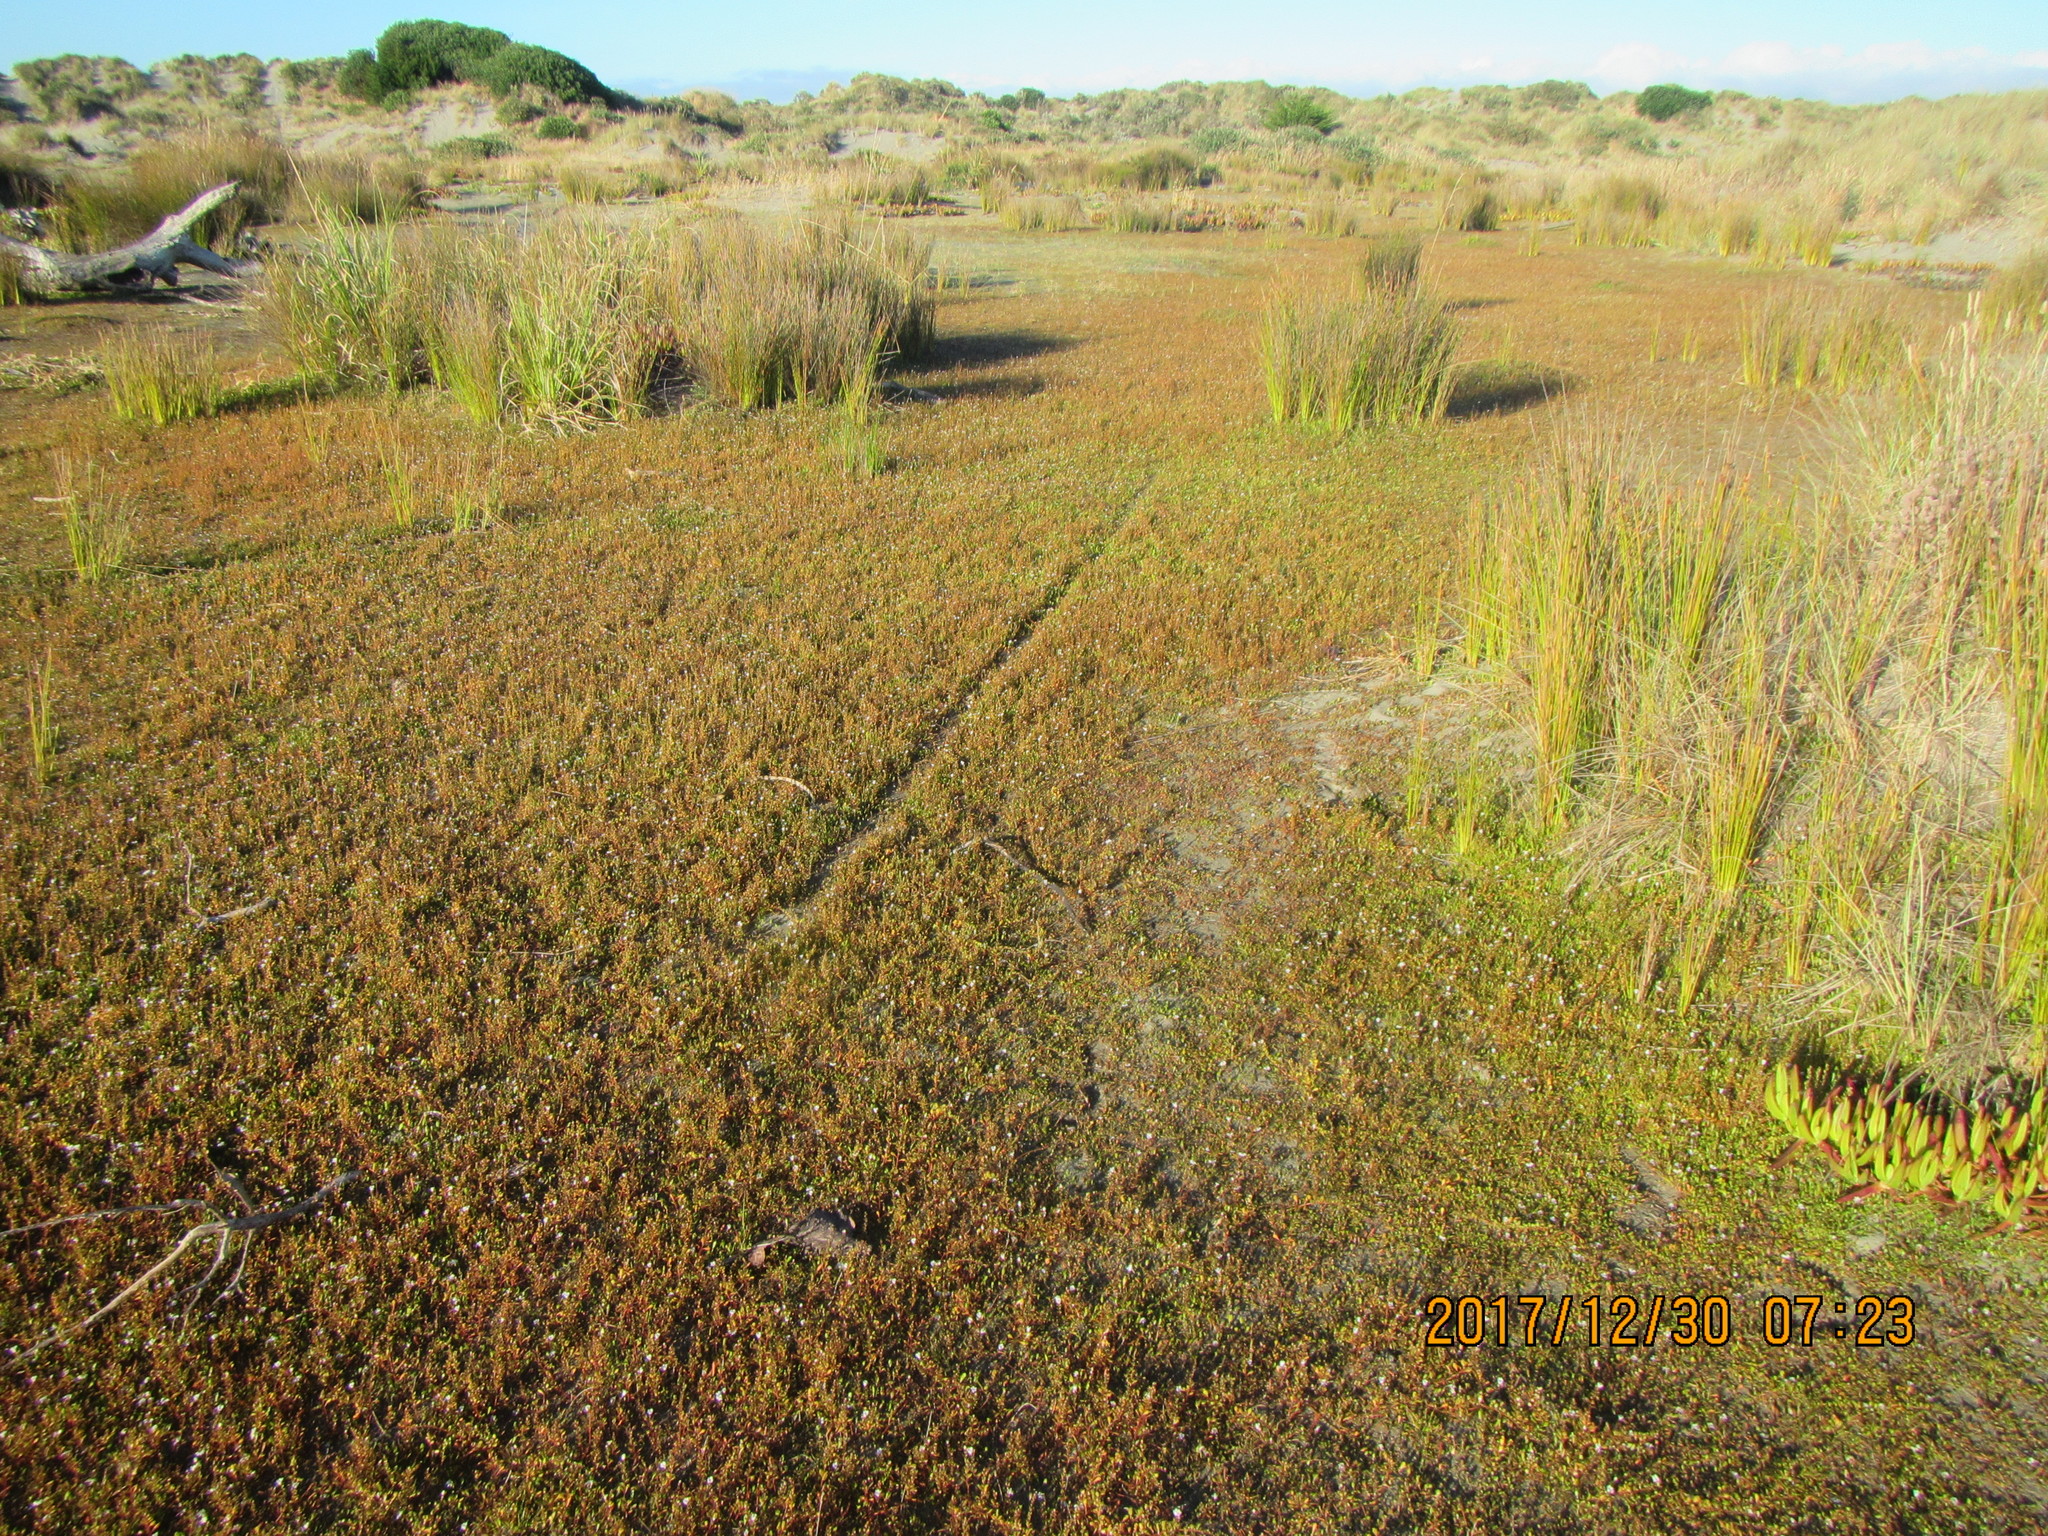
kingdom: Plantae
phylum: Tracheophyta
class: Magnoliopsida
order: Ericales
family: Primulaceae
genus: Samolus
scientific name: Samolus repens
